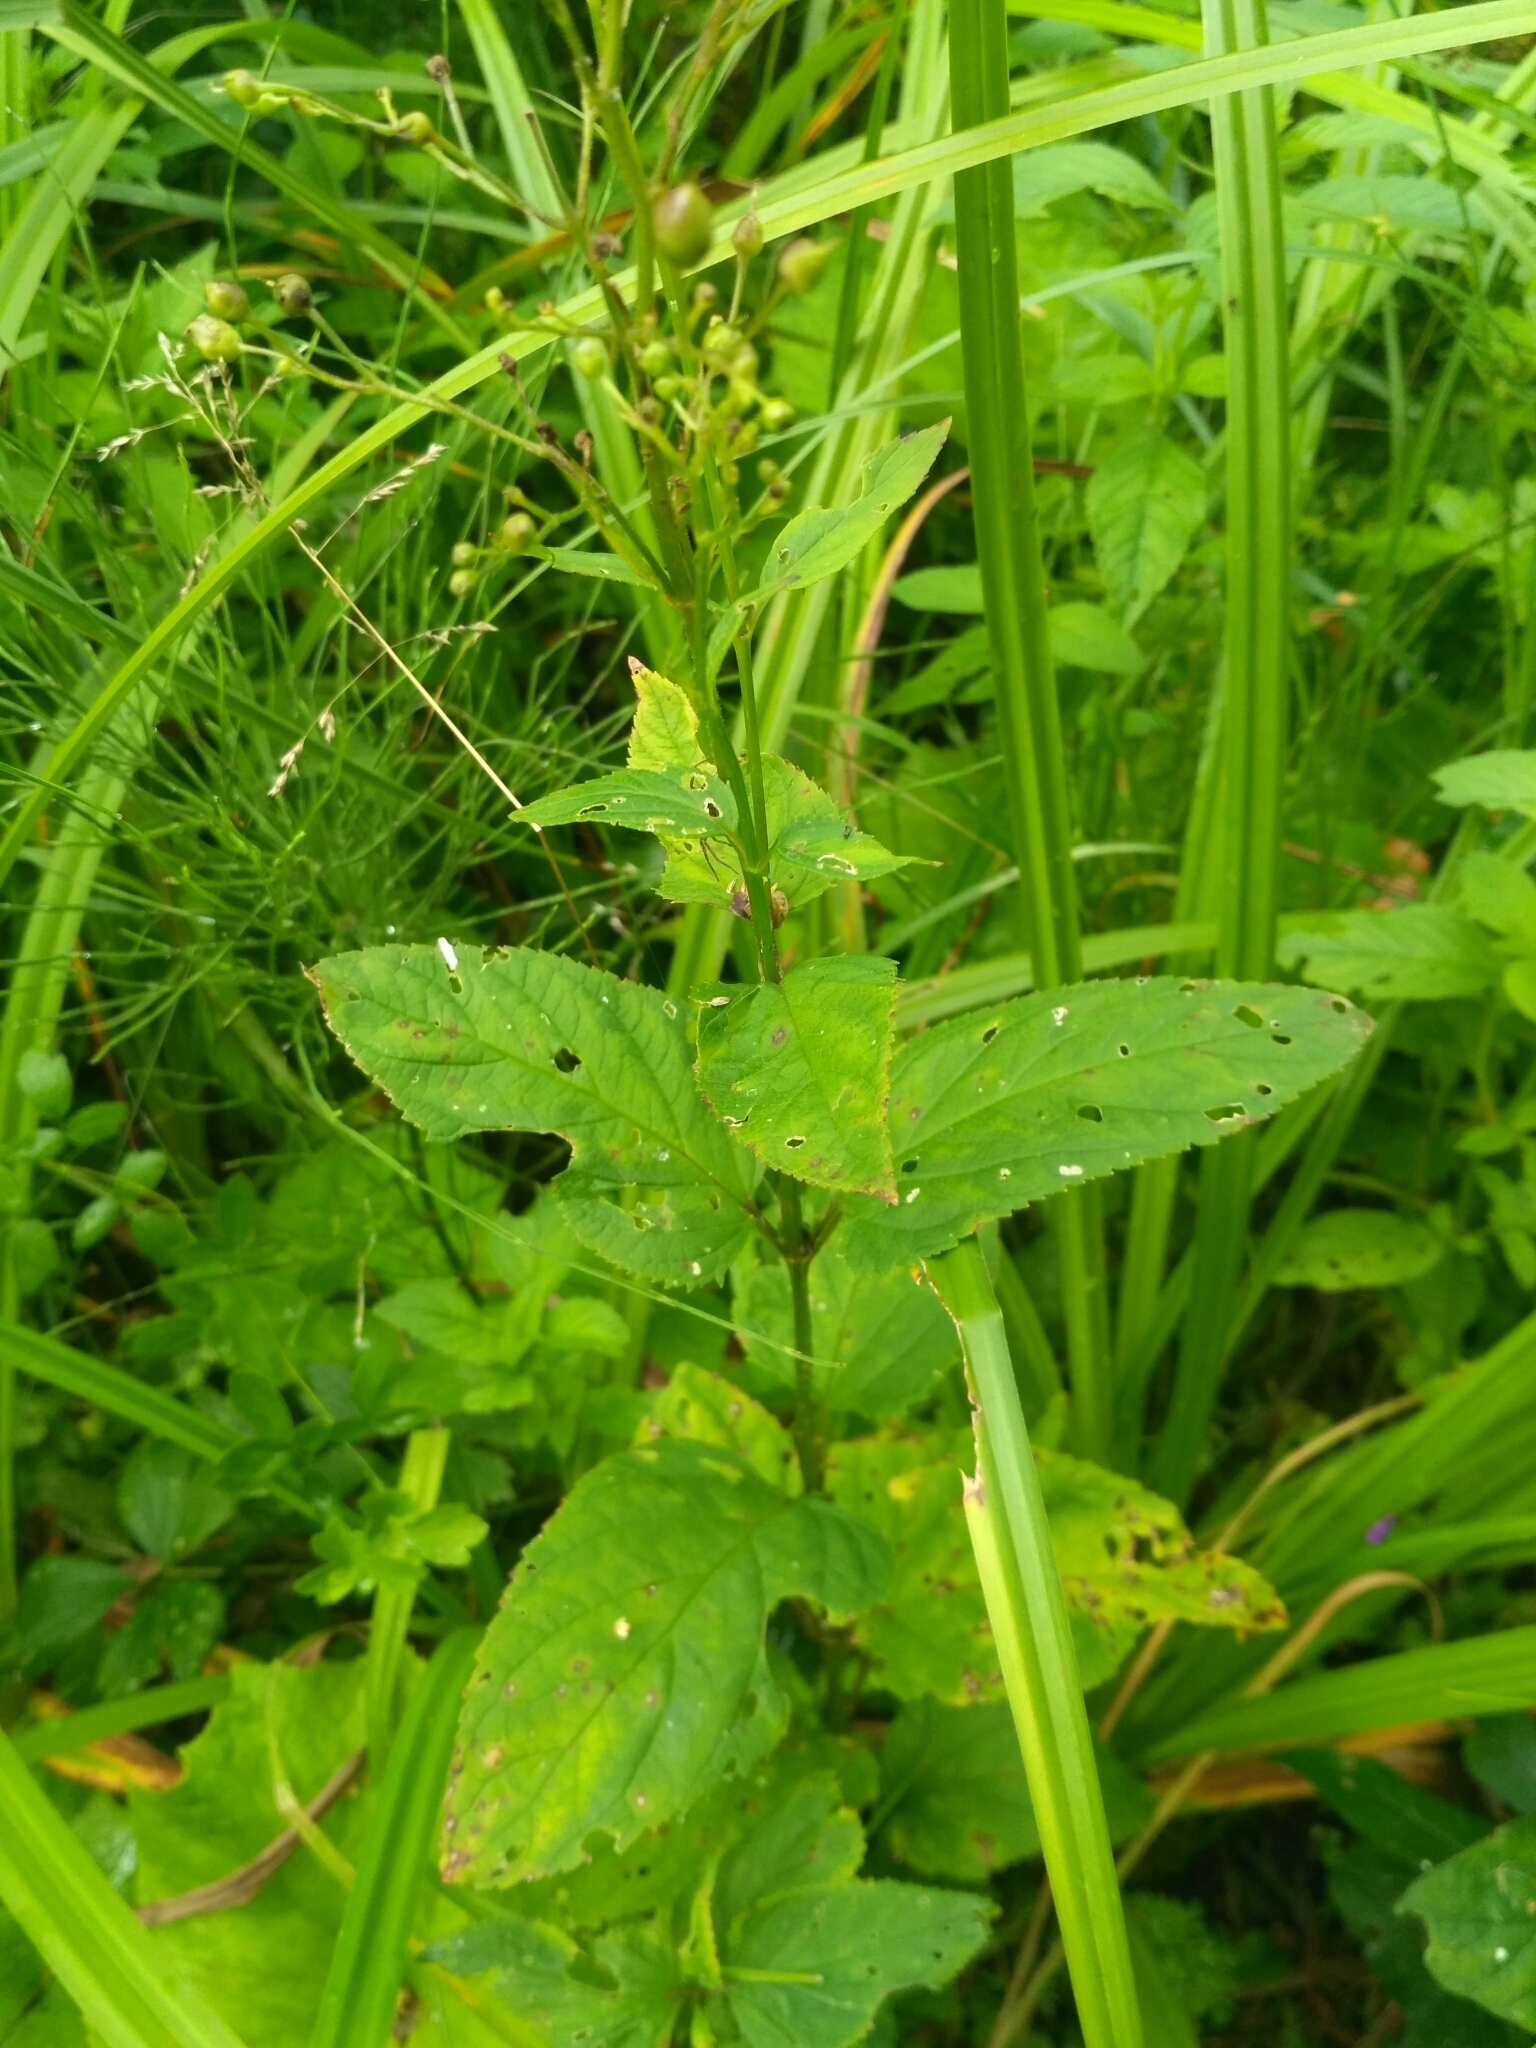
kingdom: Plantae
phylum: Tracheophyta
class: Magnoliopsida
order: Lamiales
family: Scrophulariaceae
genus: Scrophularia
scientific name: Scrophularia nodosa
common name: Common figwort
